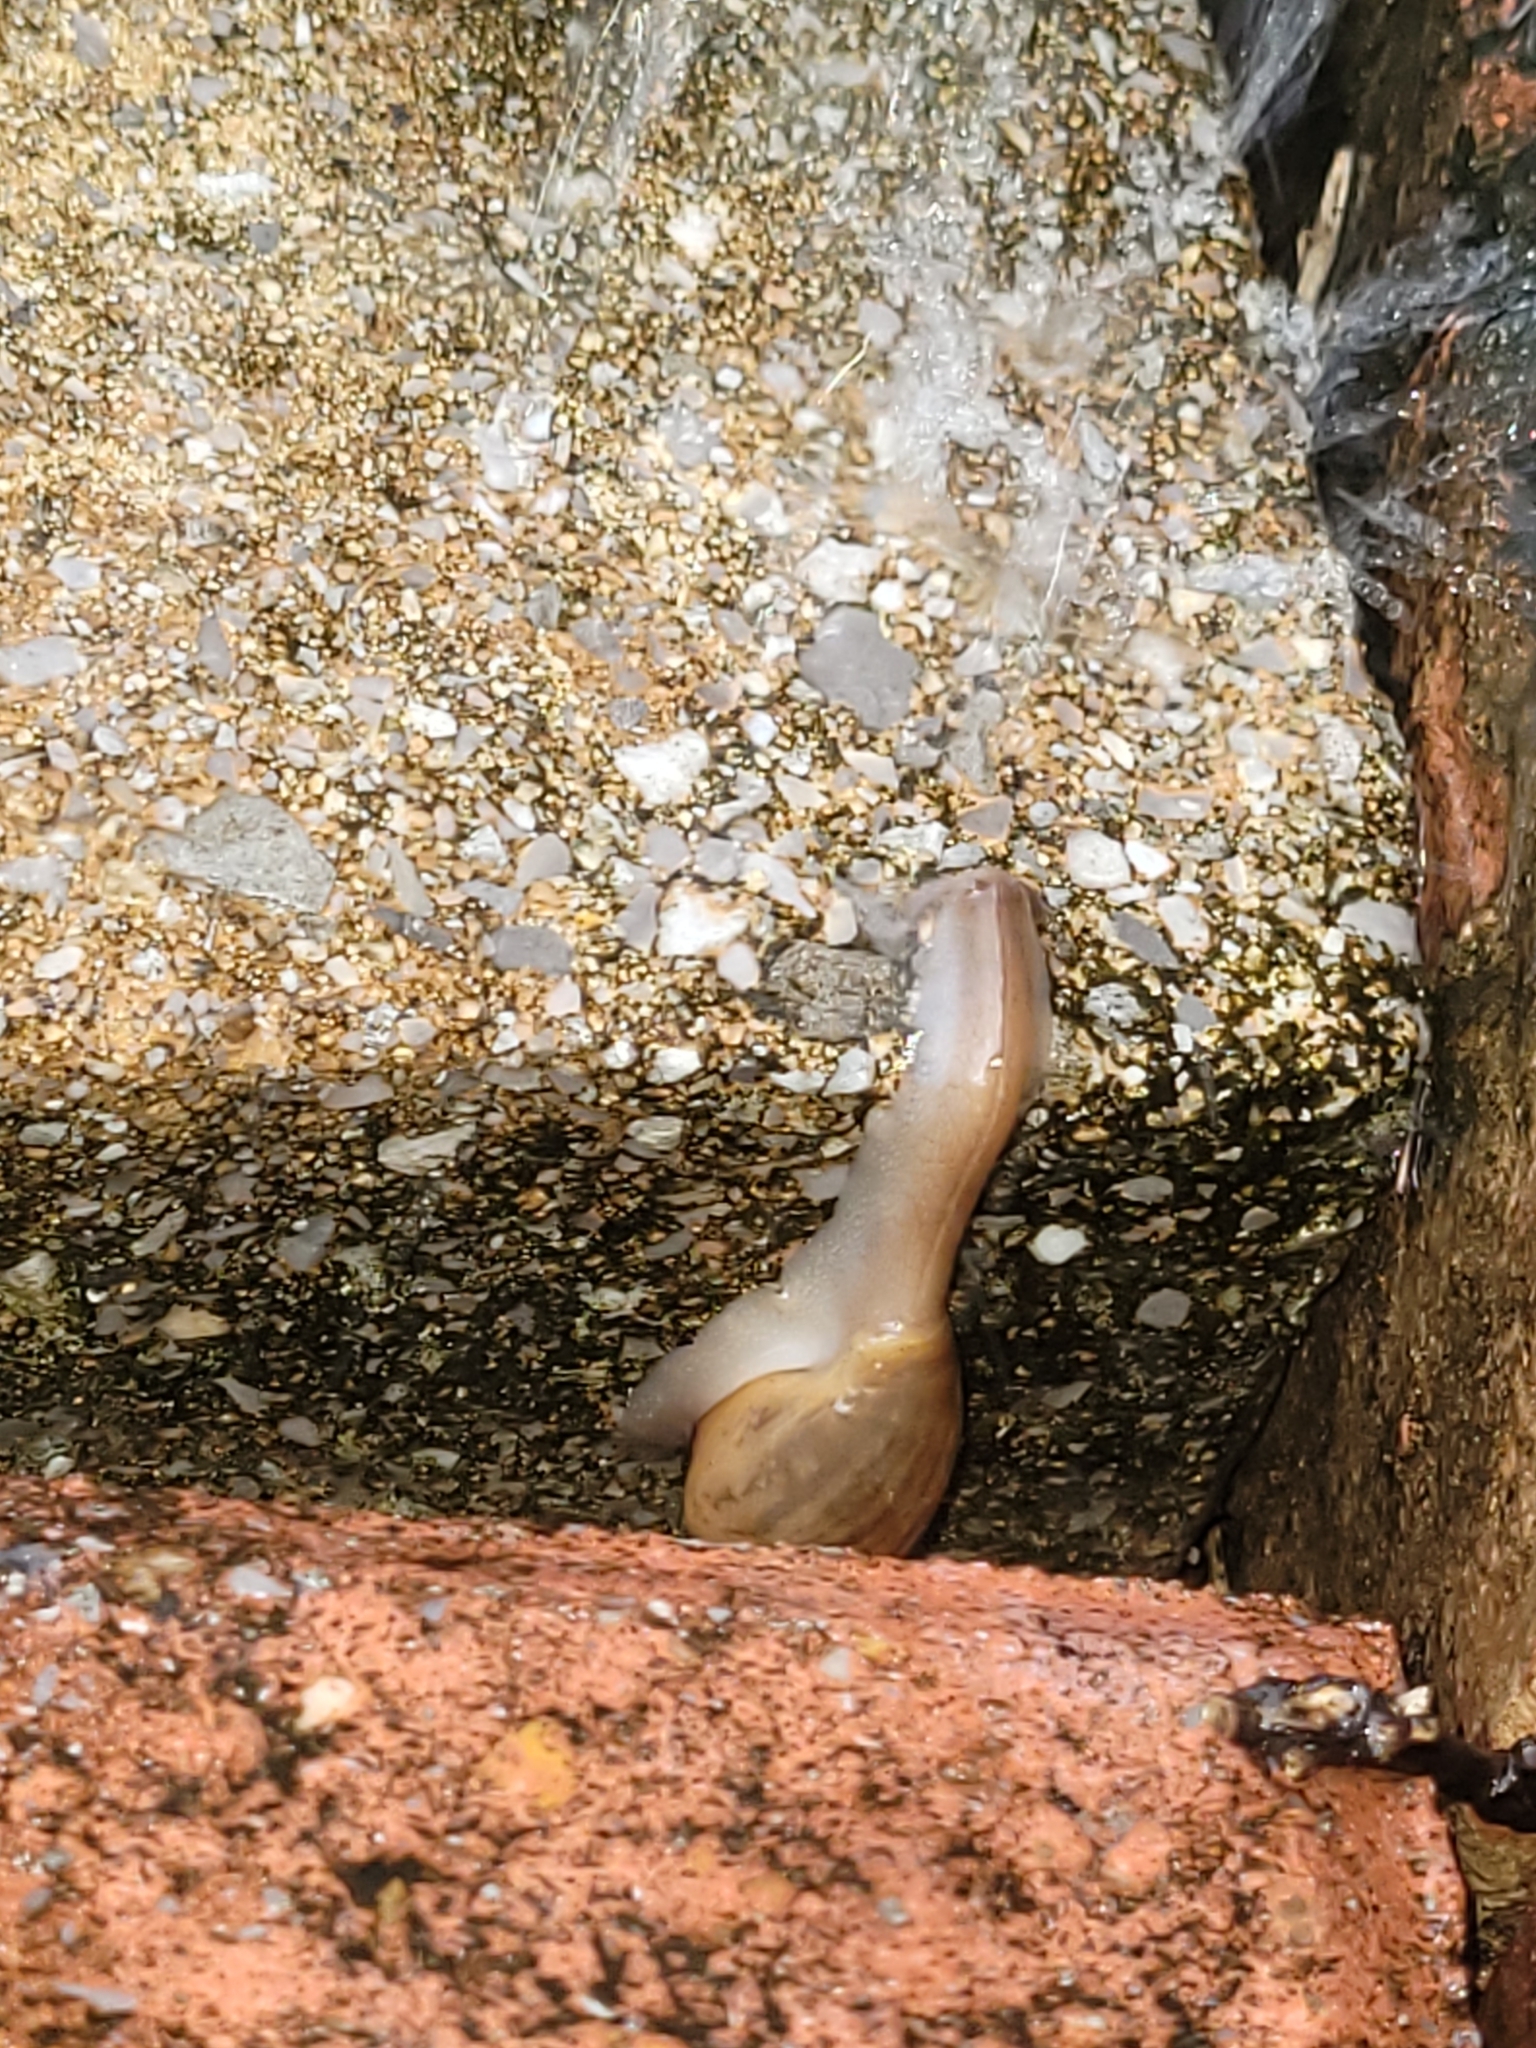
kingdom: Animalia
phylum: Mollusca
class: Gastropoda
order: Stylommatophora
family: Spiraxidae
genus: Euglandina
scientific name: Euglandina rosea
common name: Rosy wolfsnail
